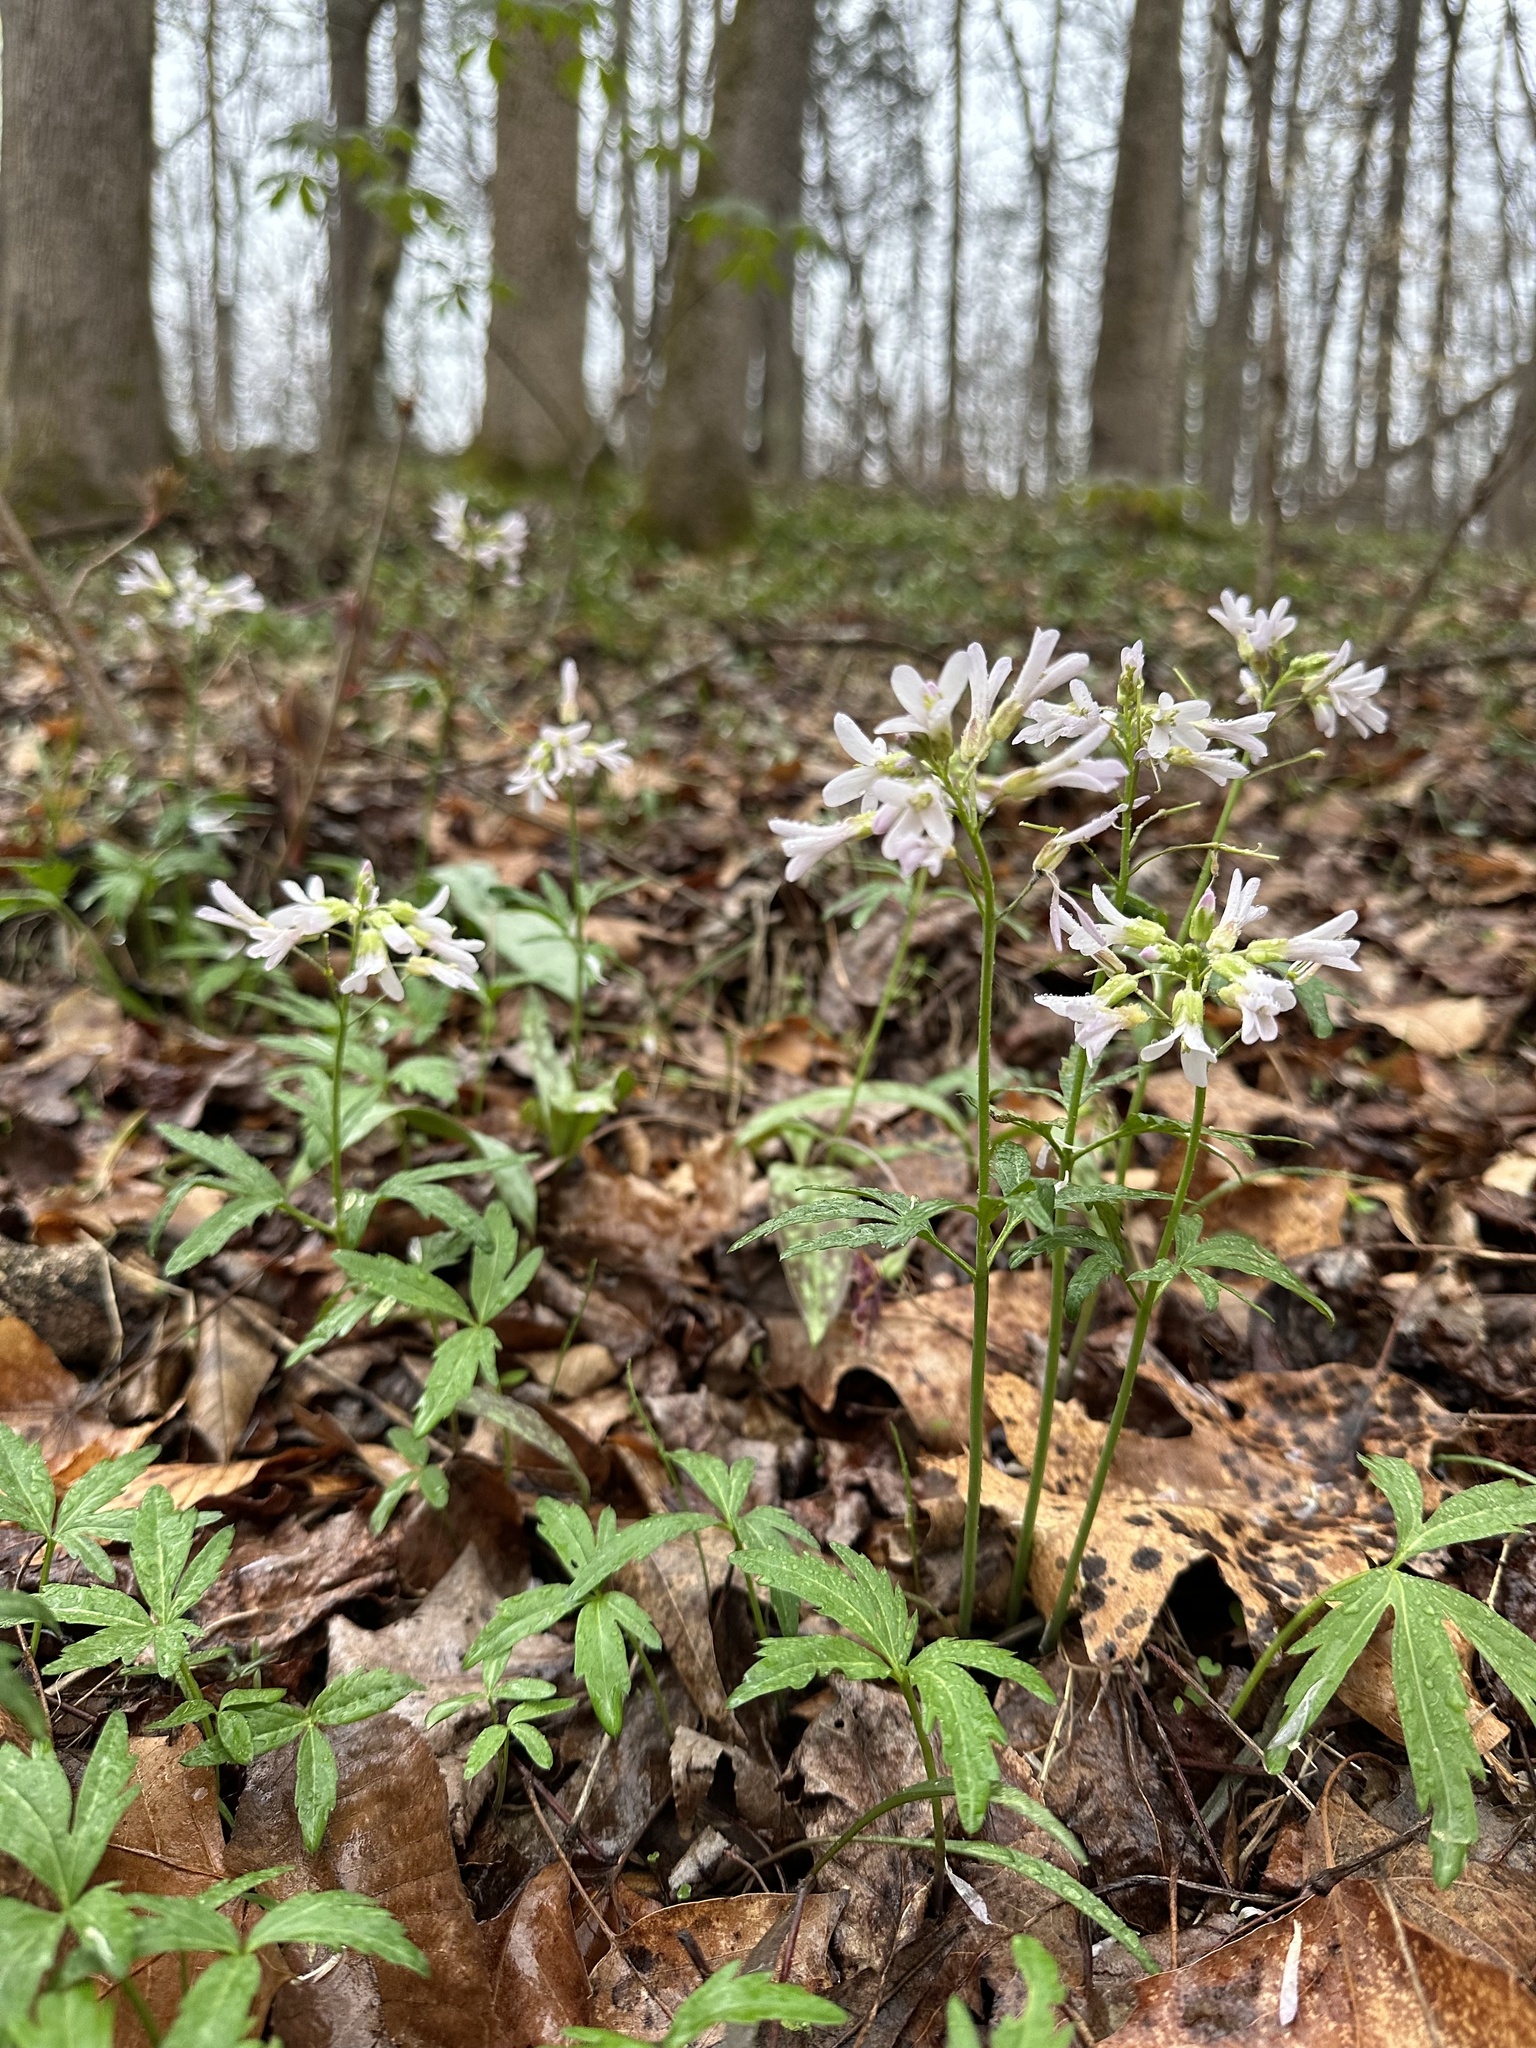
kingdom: Plantae
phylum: Tracheophyta
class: Magnoliopsida
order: Brassicales
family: Brassicaceae
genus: Cardamine
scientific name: Cardamine concatenata
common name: Cut-leaf toothcup
